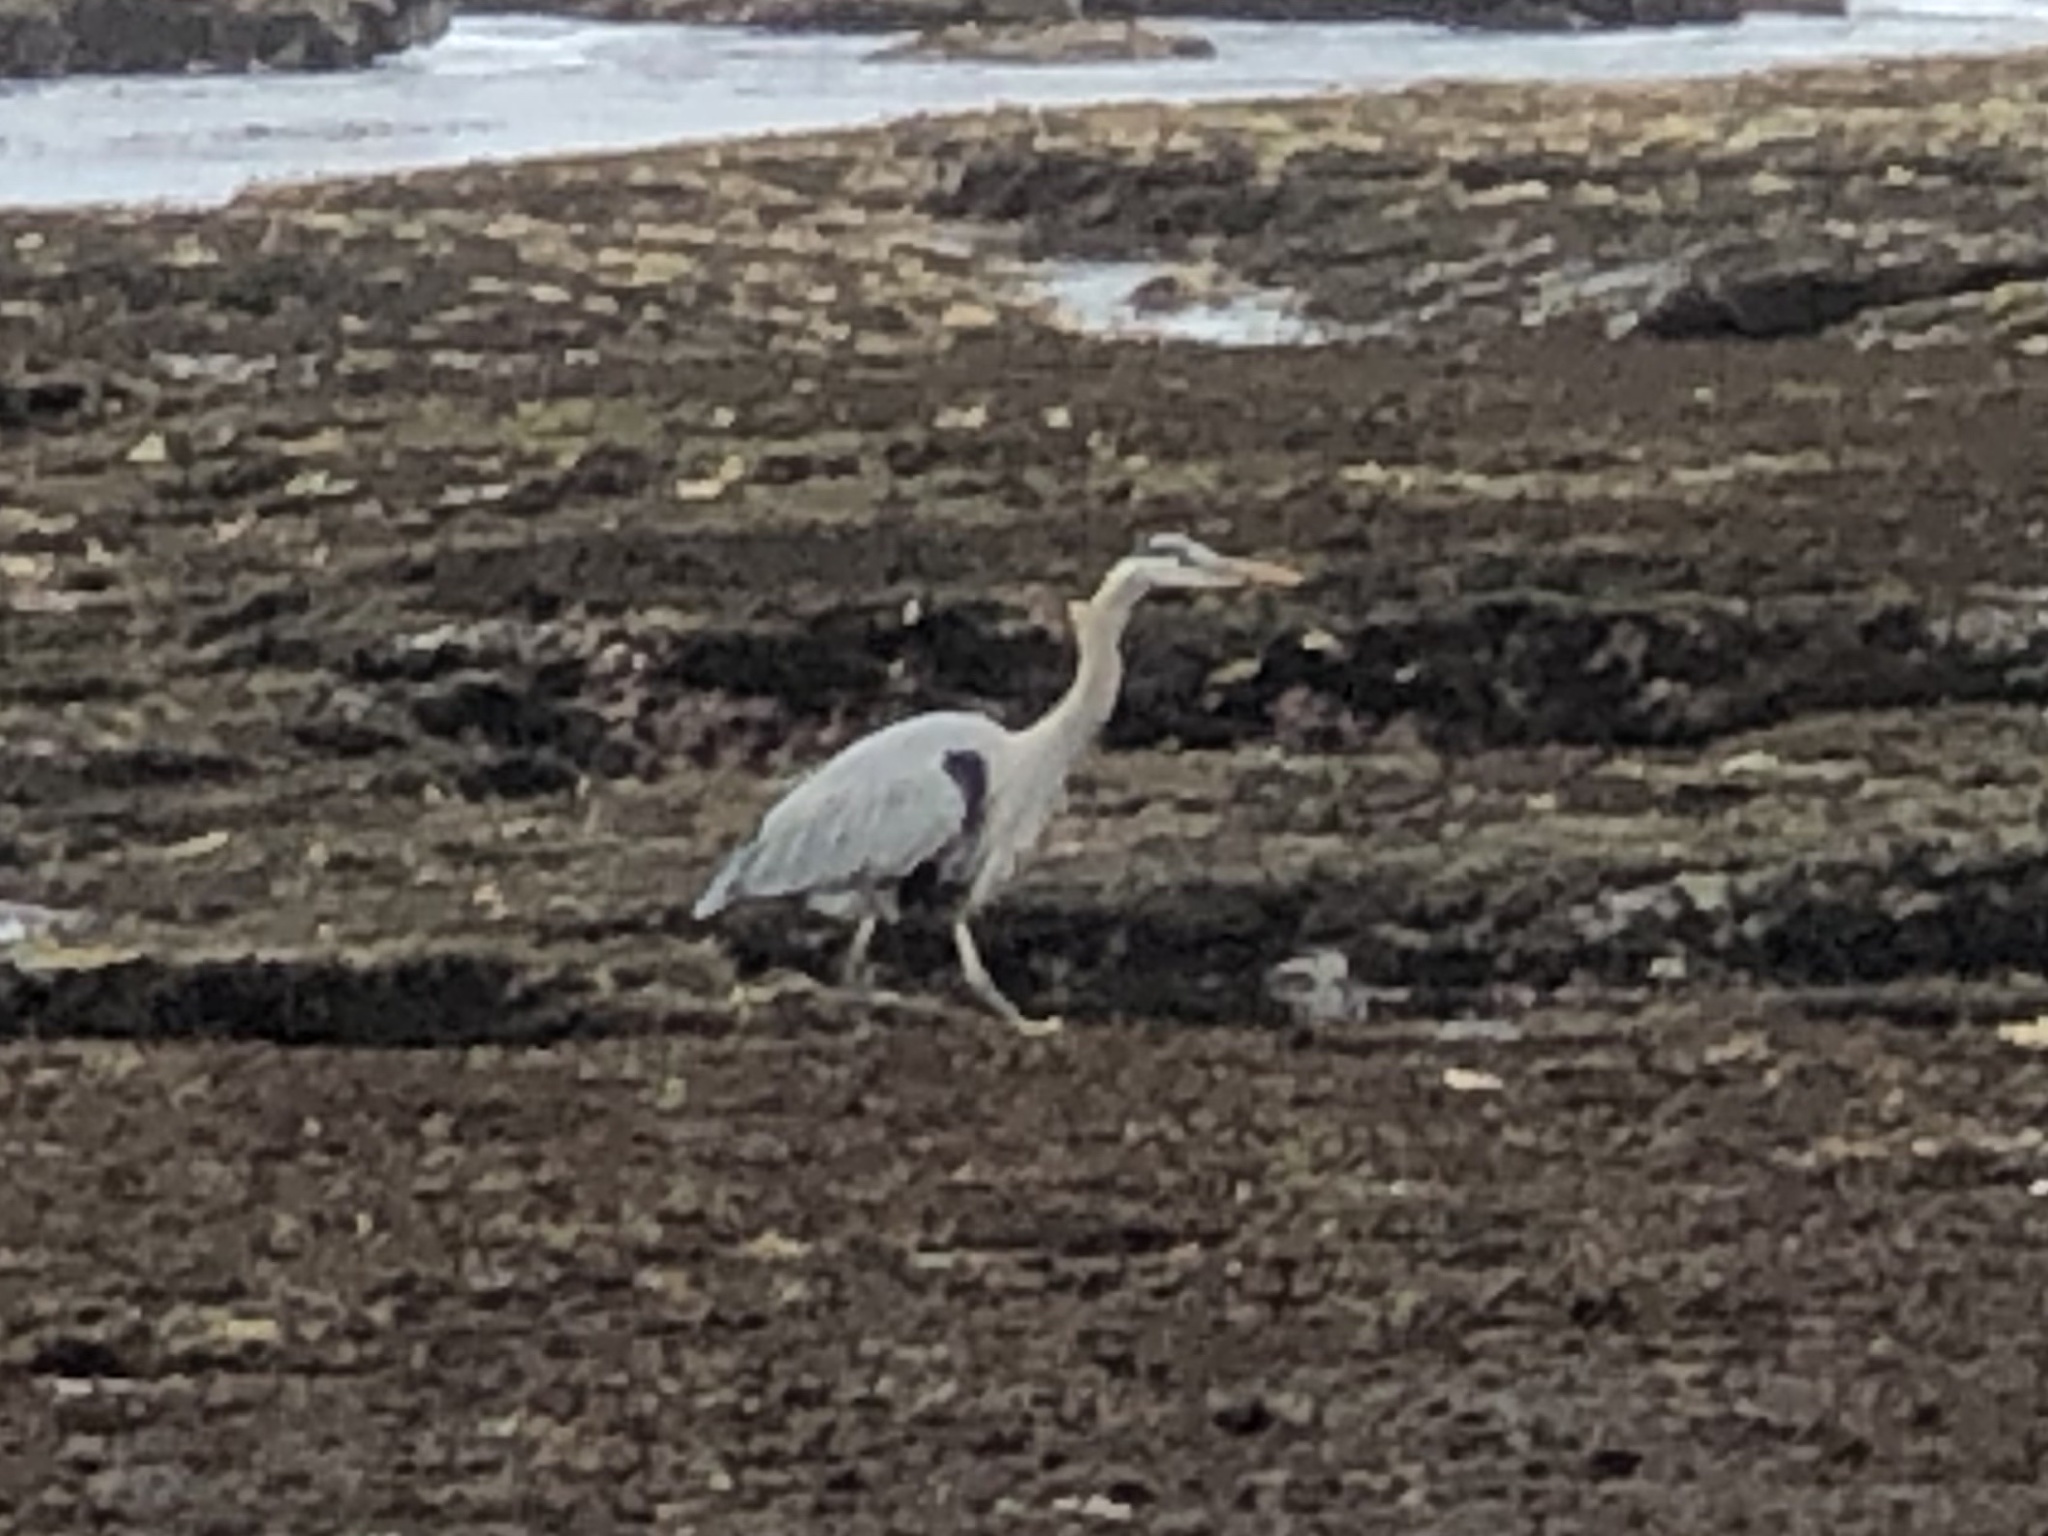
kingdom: Animalia
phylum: Chordata
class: Aves
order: Pelecaniformes
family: Ardeidae
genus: Ardea
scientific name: Ardea herodias
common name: Great blue heron
